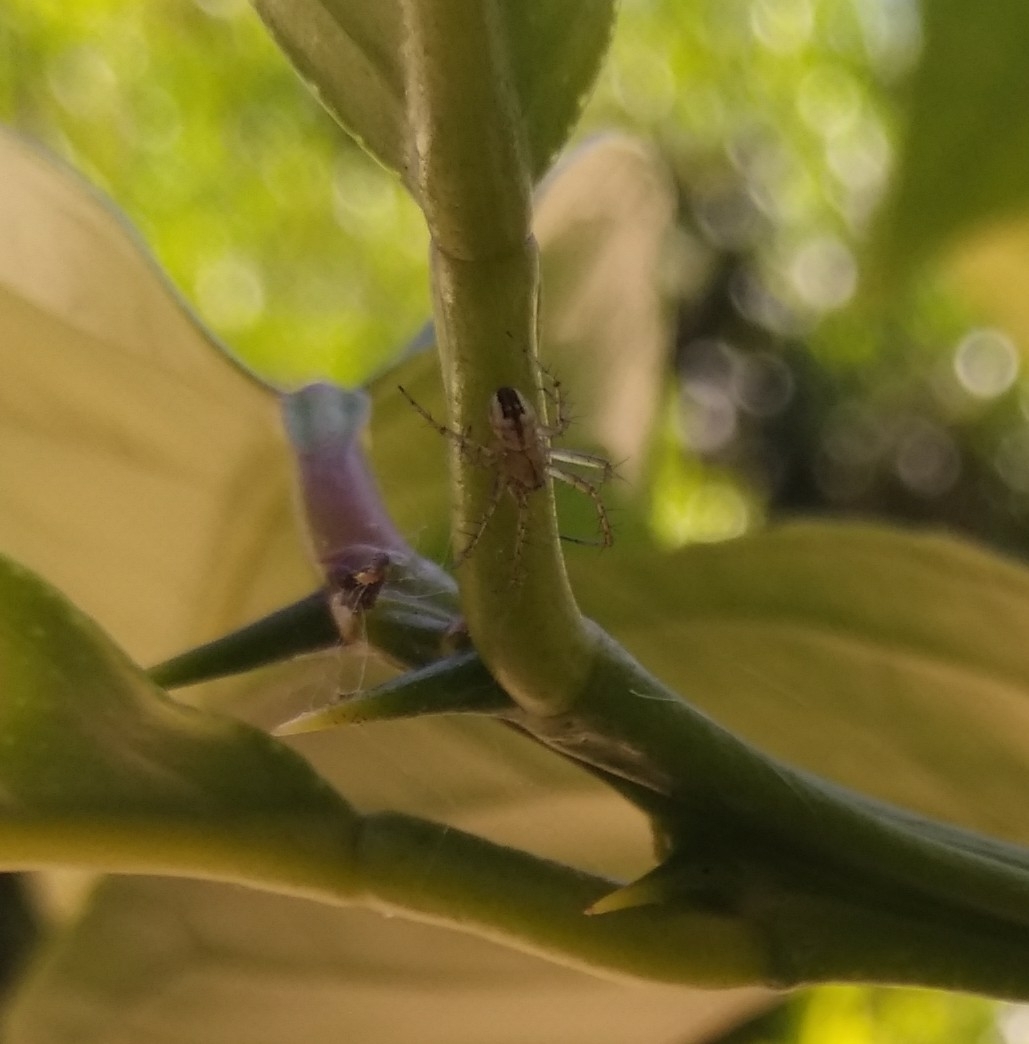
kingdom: Animalia
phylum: Arthropoda
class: Arachnida
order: Araneae
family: Araneidae
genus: Mangora
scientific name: Mangora acalypha
